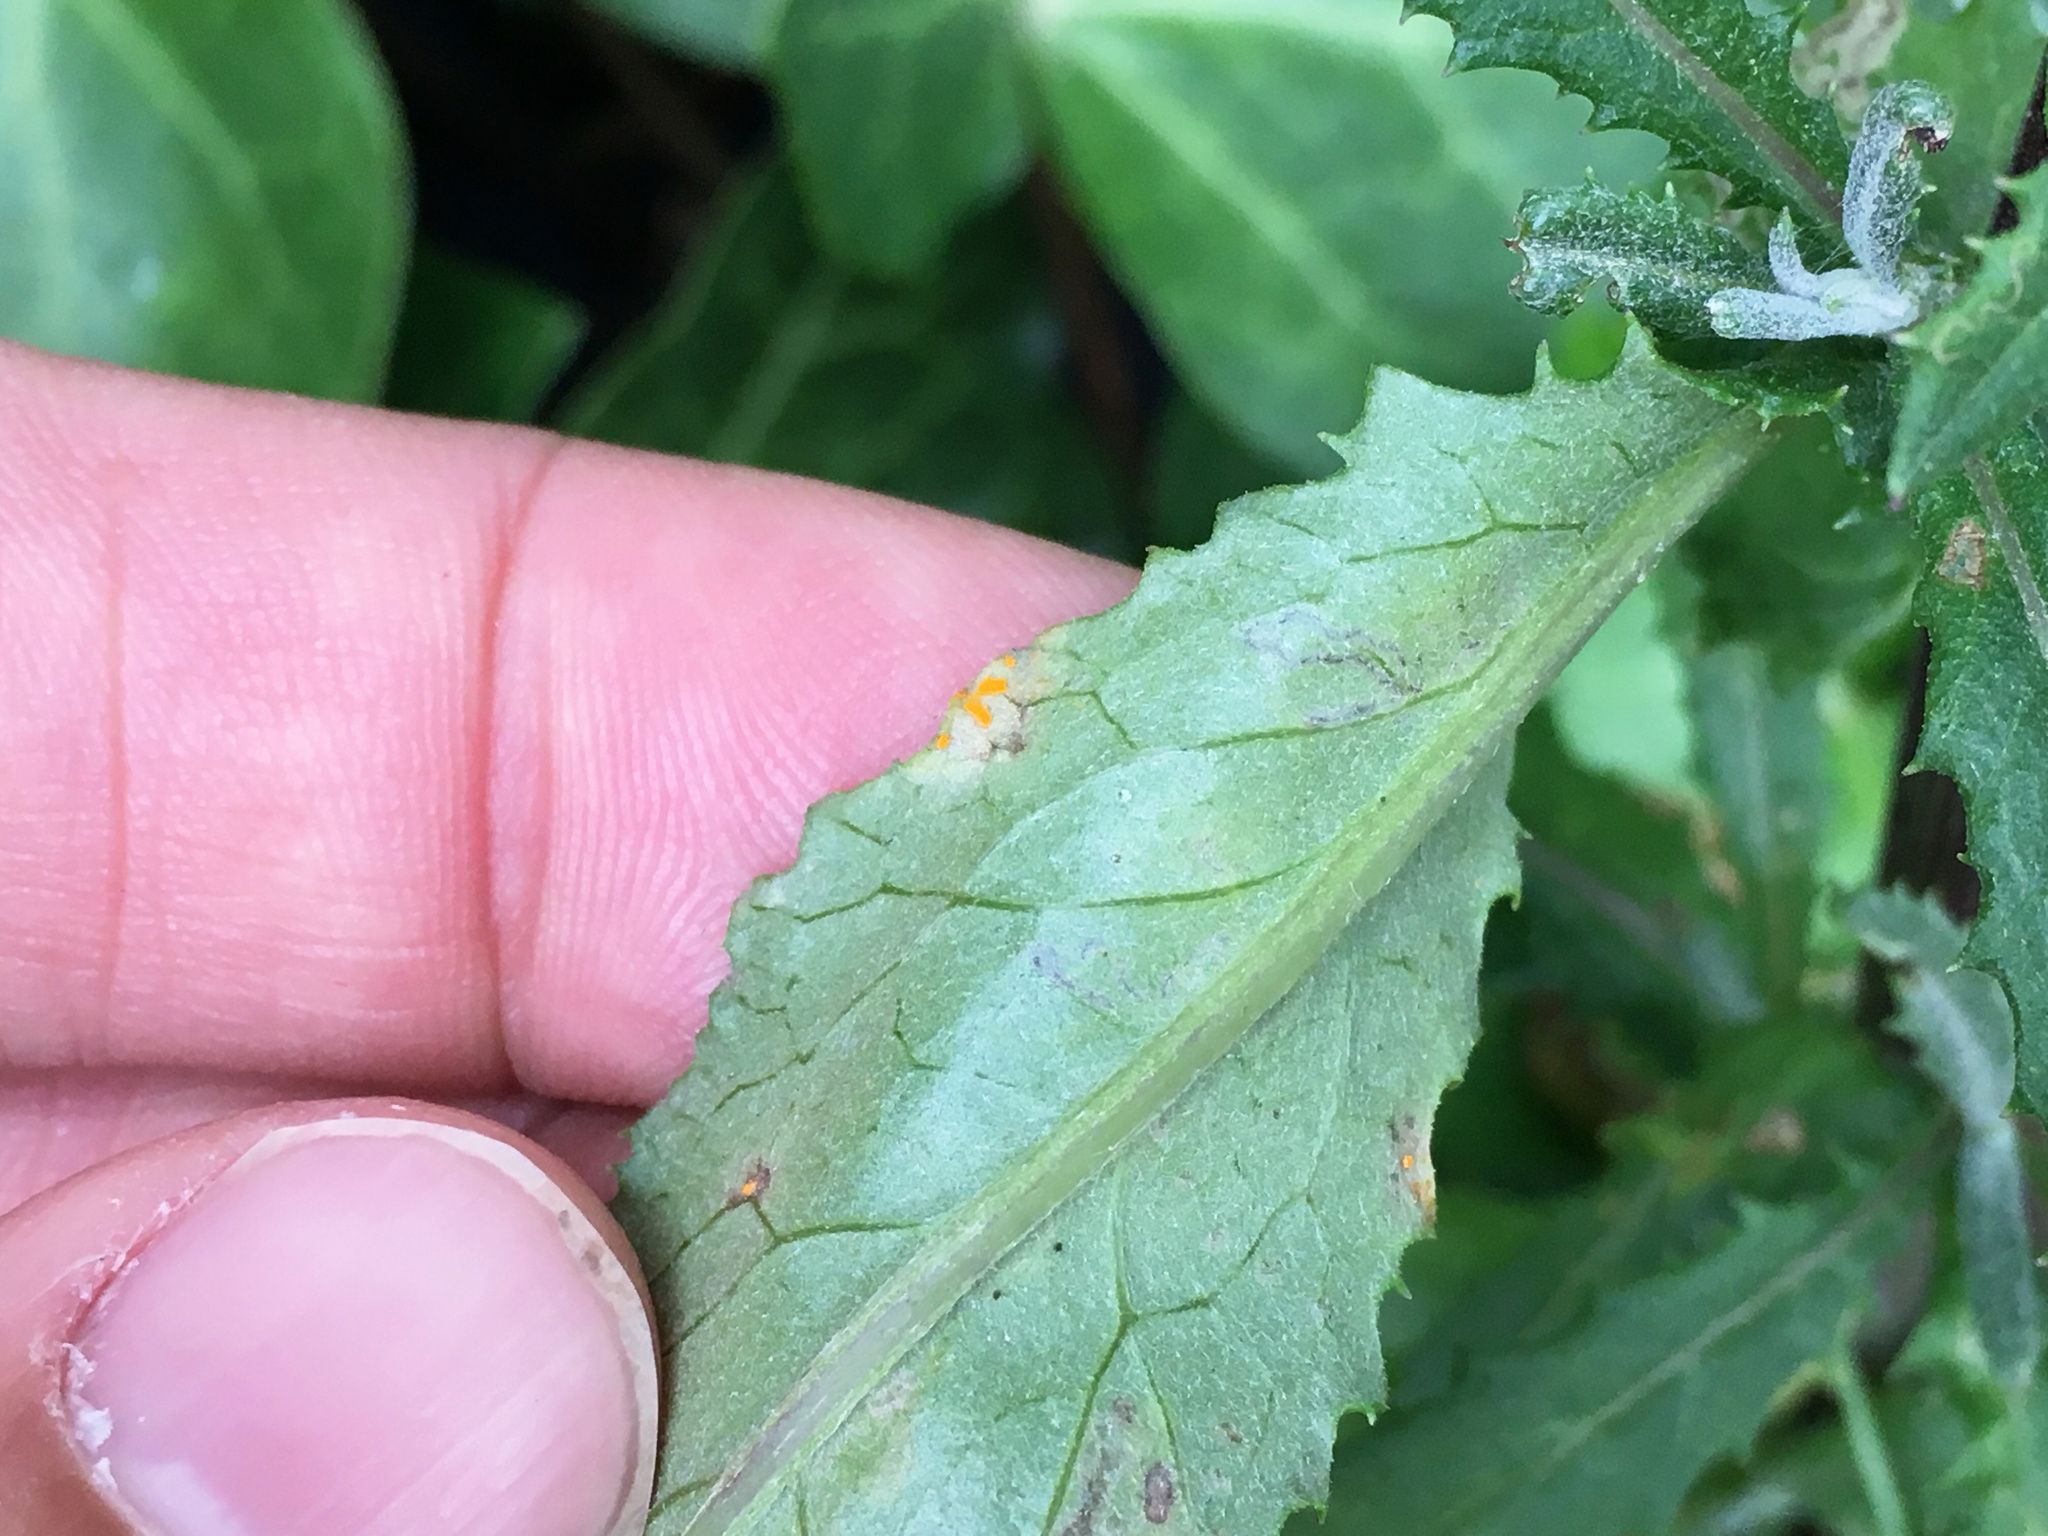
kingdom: Fungi
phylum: Basidiomycota
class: Pucciniomycetes
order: Pucciniales
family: Coleosporiaceae
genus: Coleosporium
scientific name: Coleosporium tussilaginis
